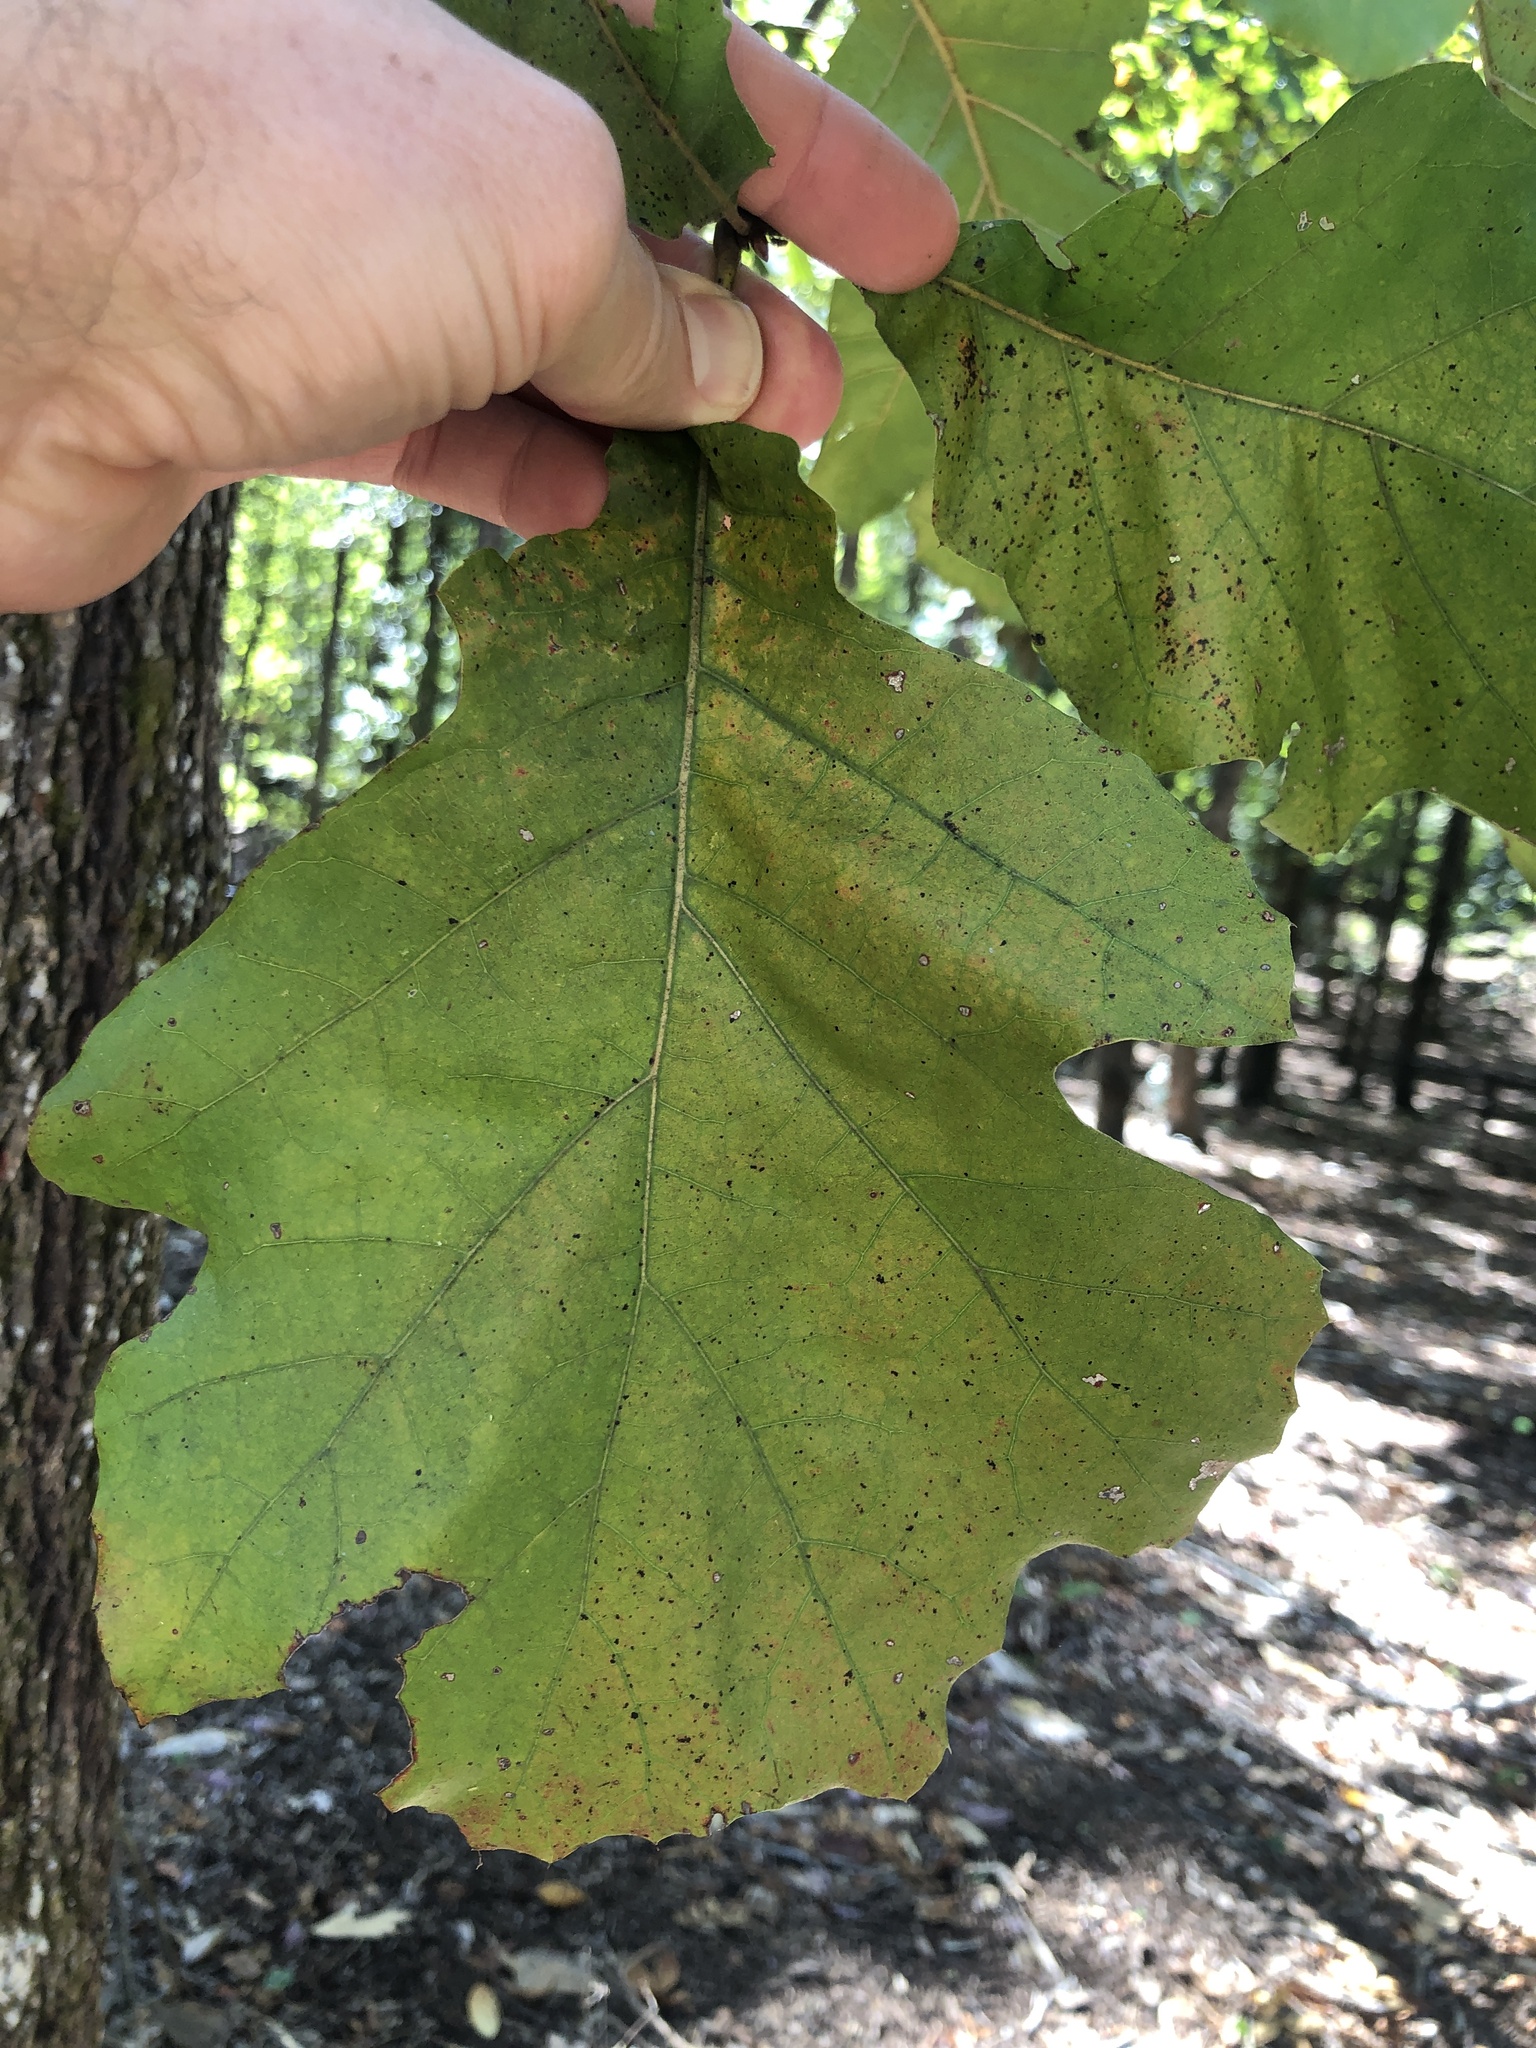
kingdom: Plantae
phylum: Tracheophyta
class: Magnoliopsida
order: Fagales
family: Fagaceae
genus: Quercus
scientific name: Quercus velutina
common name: Black oak
